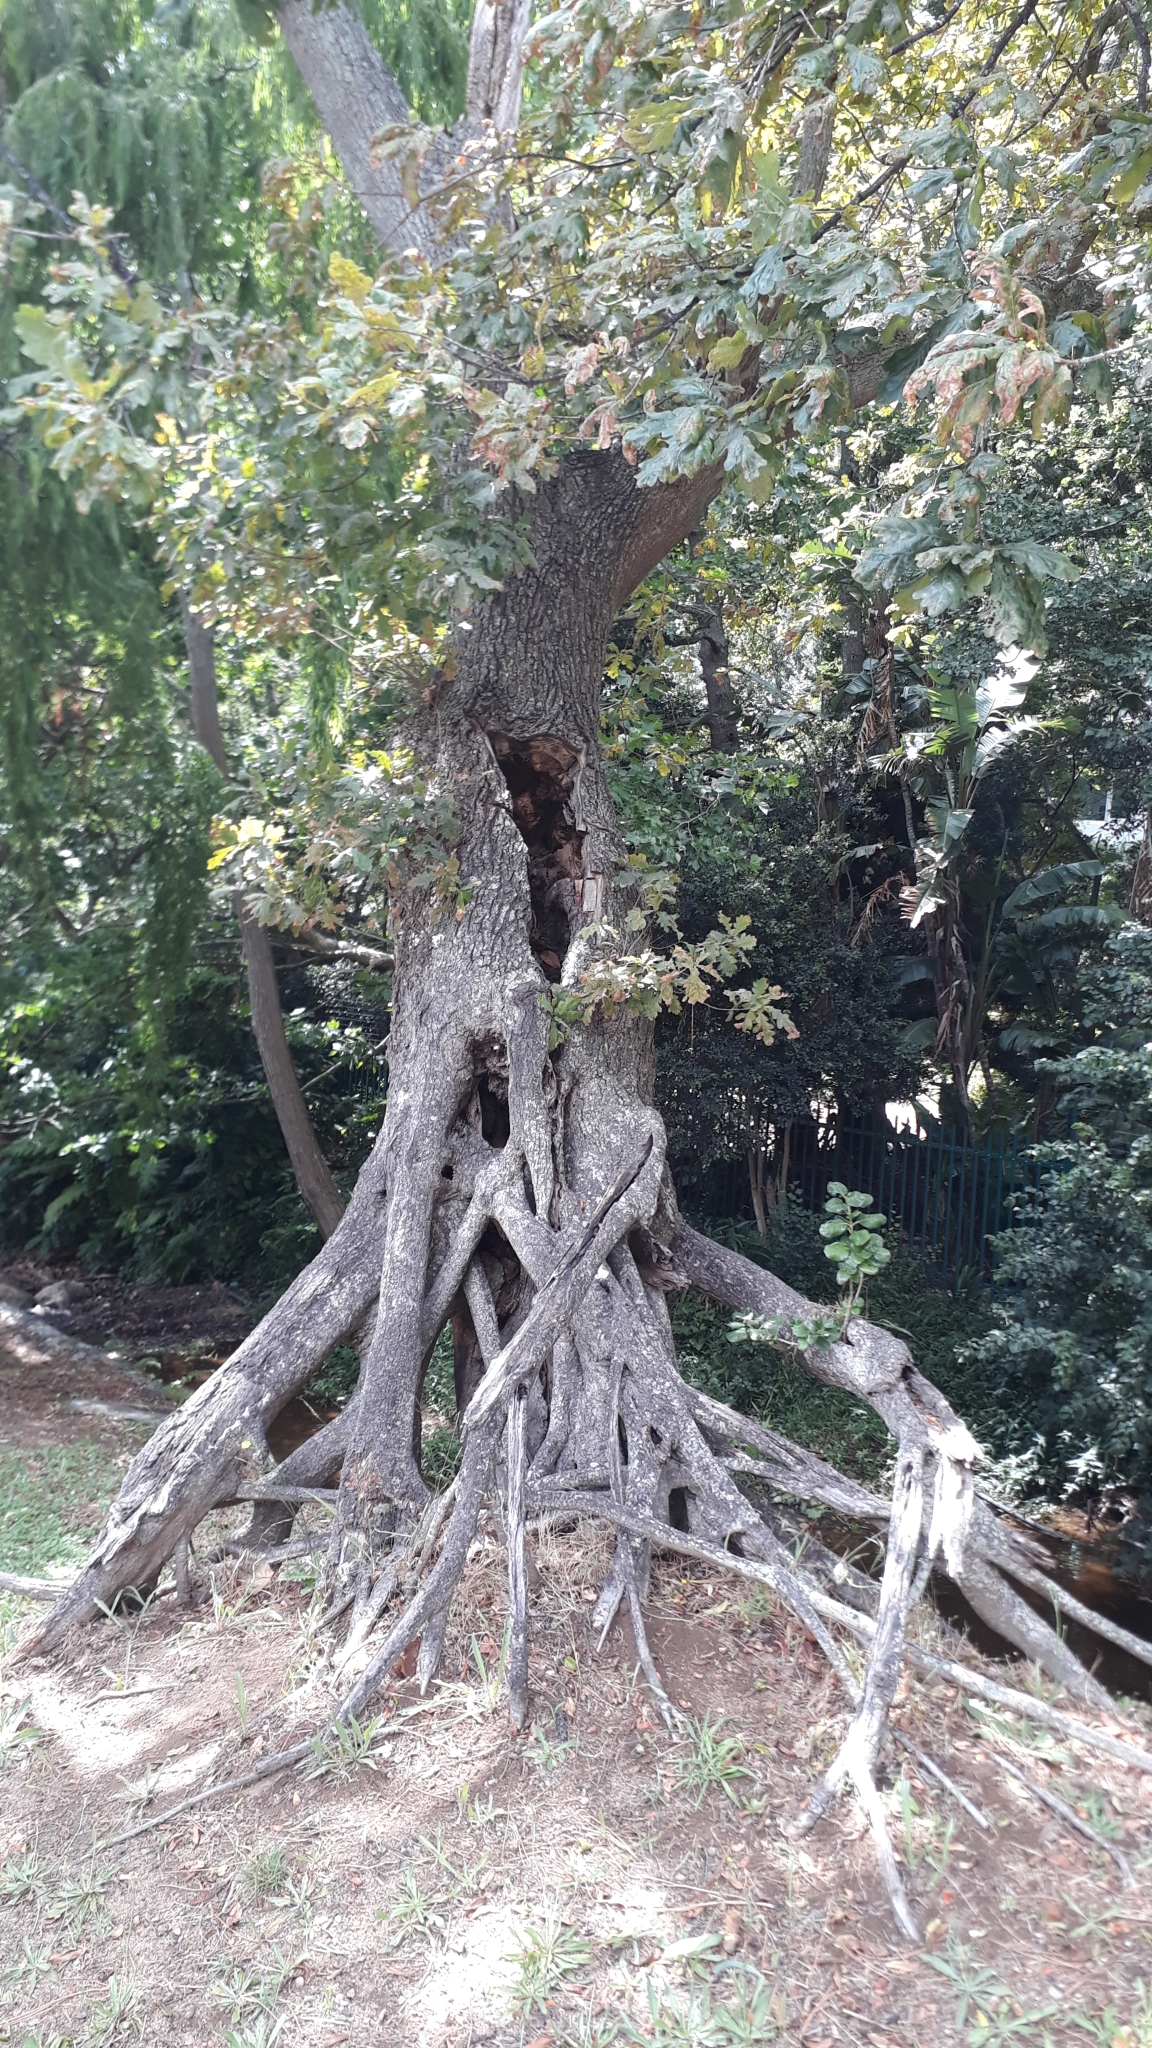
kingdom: Plantae
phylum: Tracheophyta
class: Magnoliopsida
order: Fagales
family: Fagaceae
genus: Quercus
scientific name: Quercus robur
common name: Pedunculate oak
